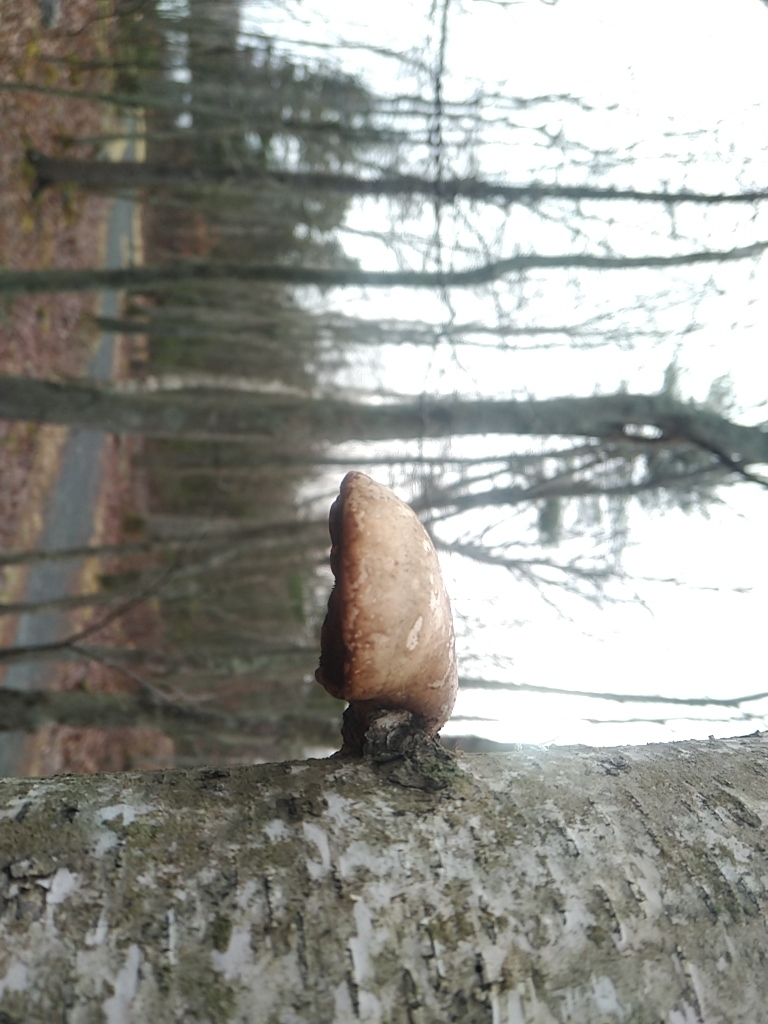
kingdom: Fungi
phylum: Basidiomycota
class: Agaricomycetes
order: Polyporales
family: Fomitopsidaceae
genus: Fomitopsis
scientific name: Fomitopsis betulina
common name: Birch polypore
